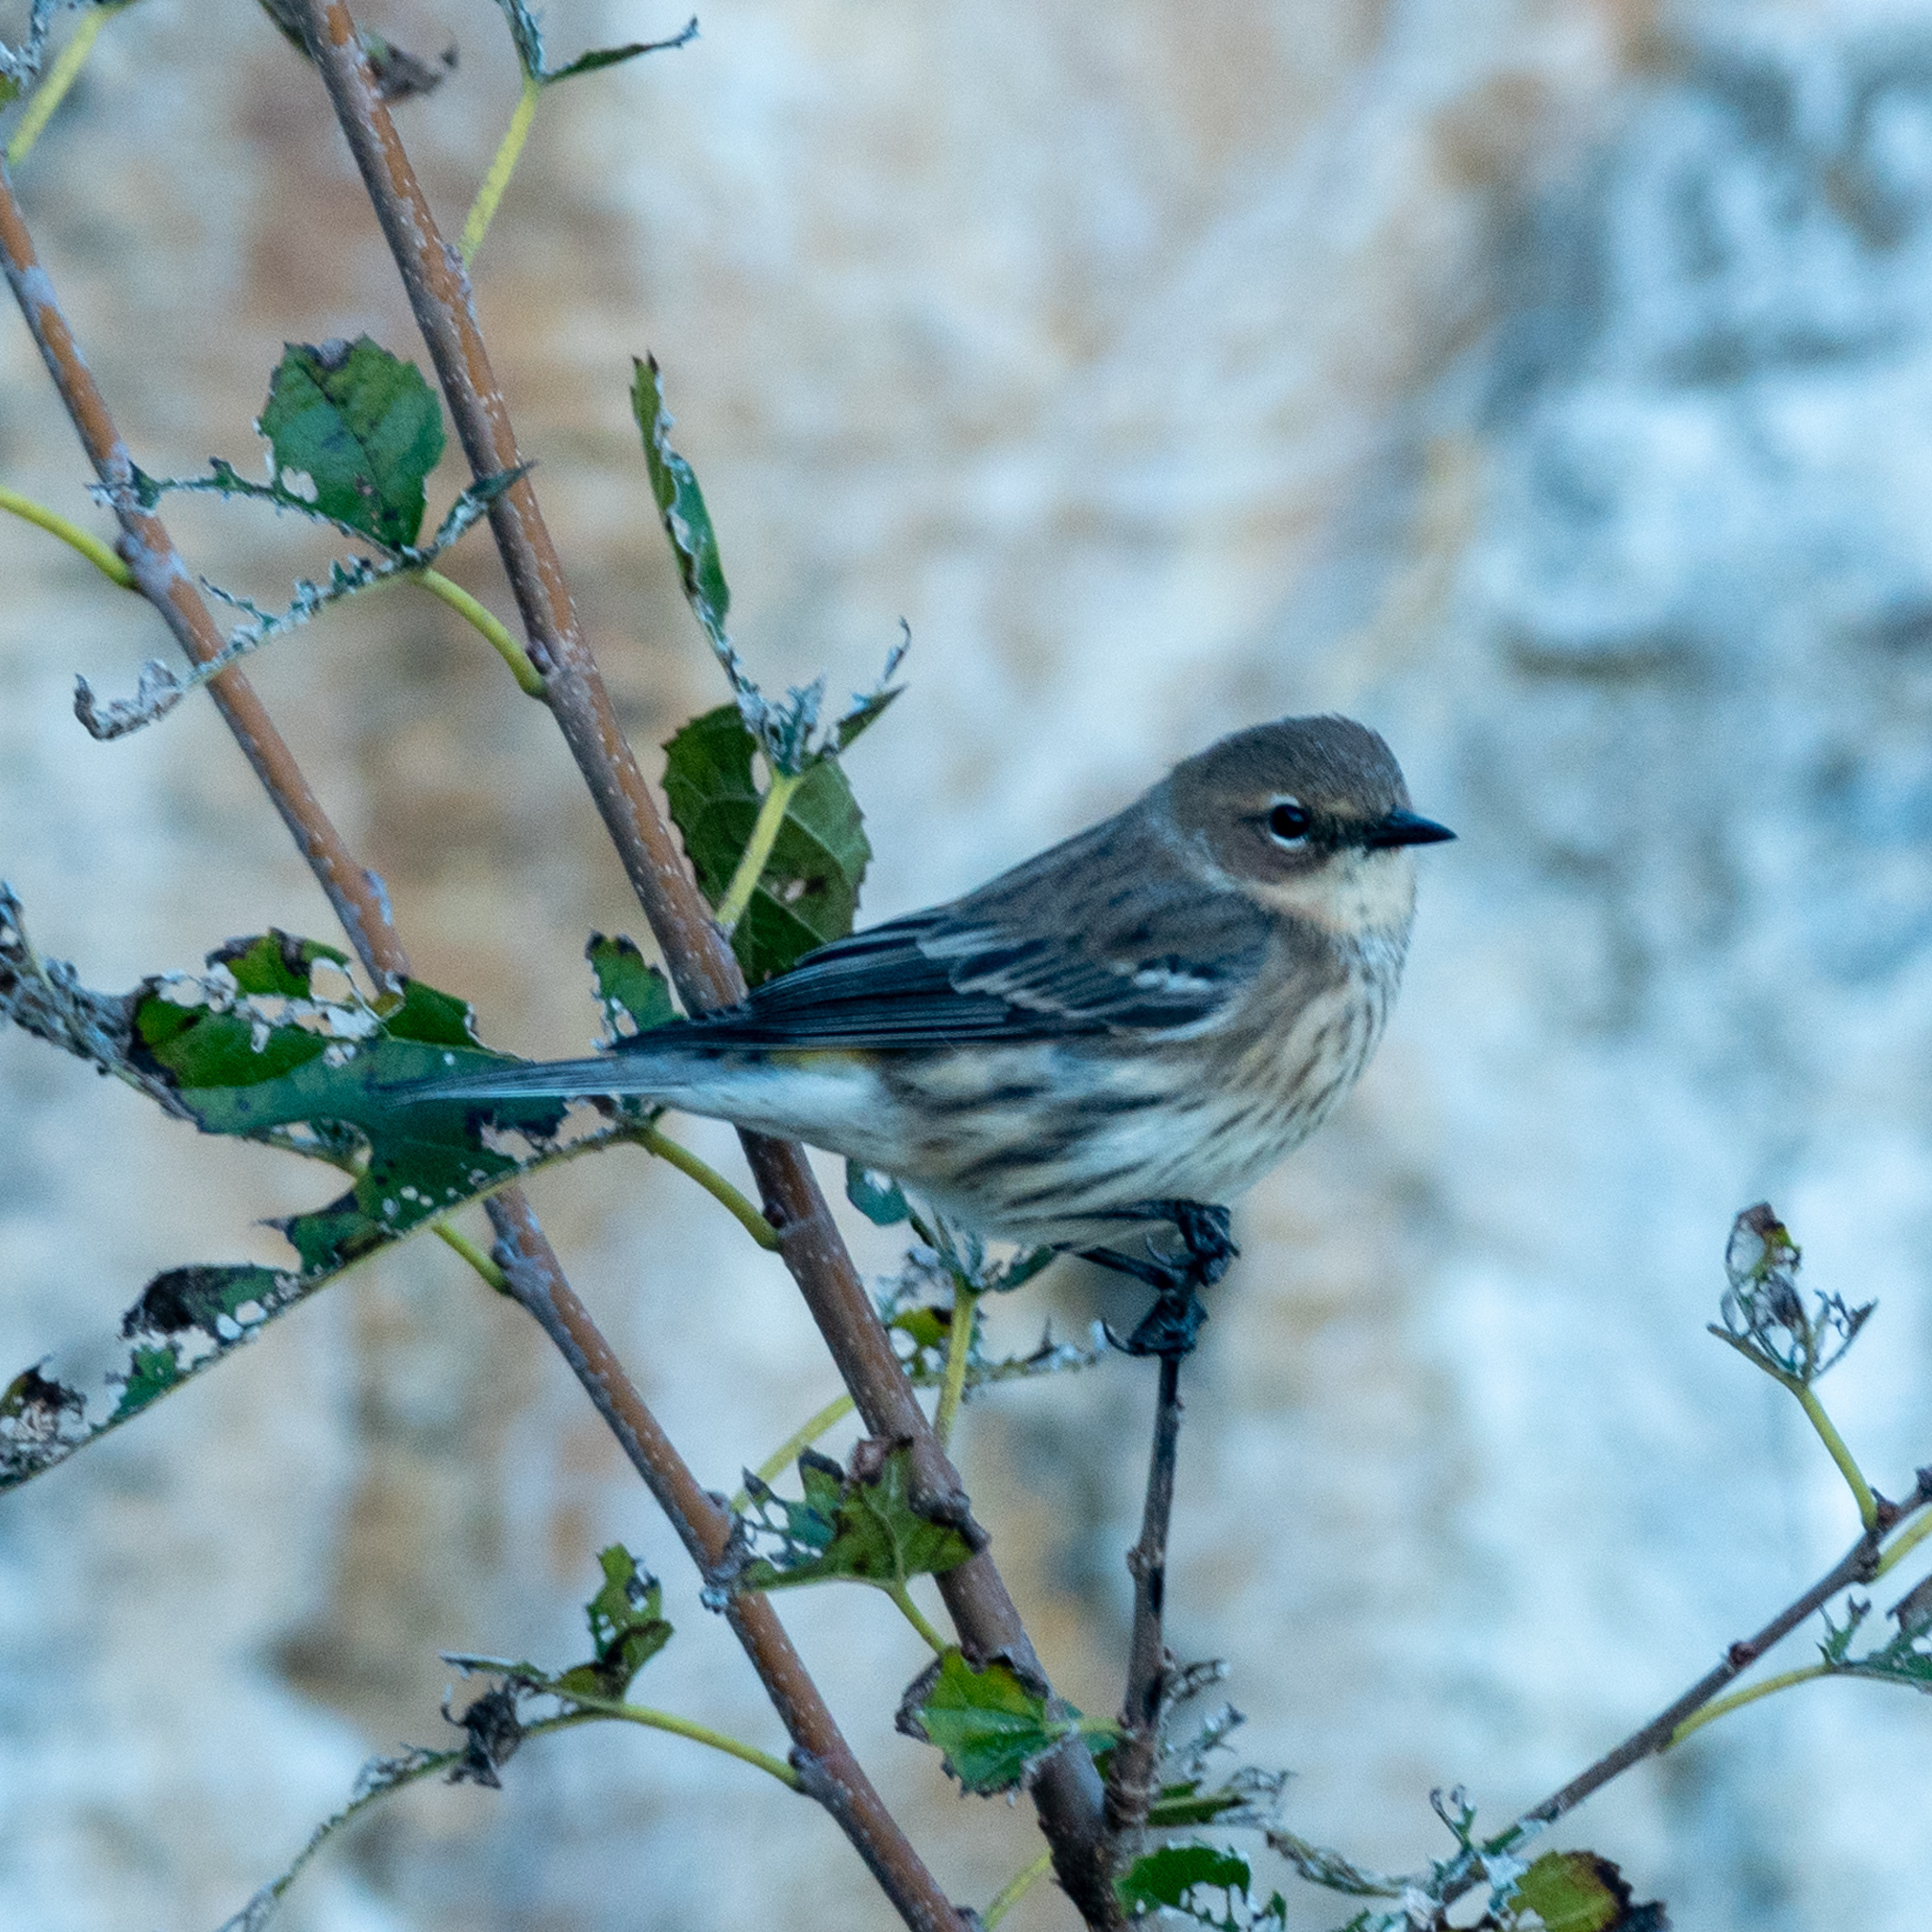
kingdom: Animalia
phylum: Chordata
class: Aves
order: Passeriformes
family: Parulidae
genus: Setophaga
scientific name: Setophaga coronata
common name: Myrtle warbler
